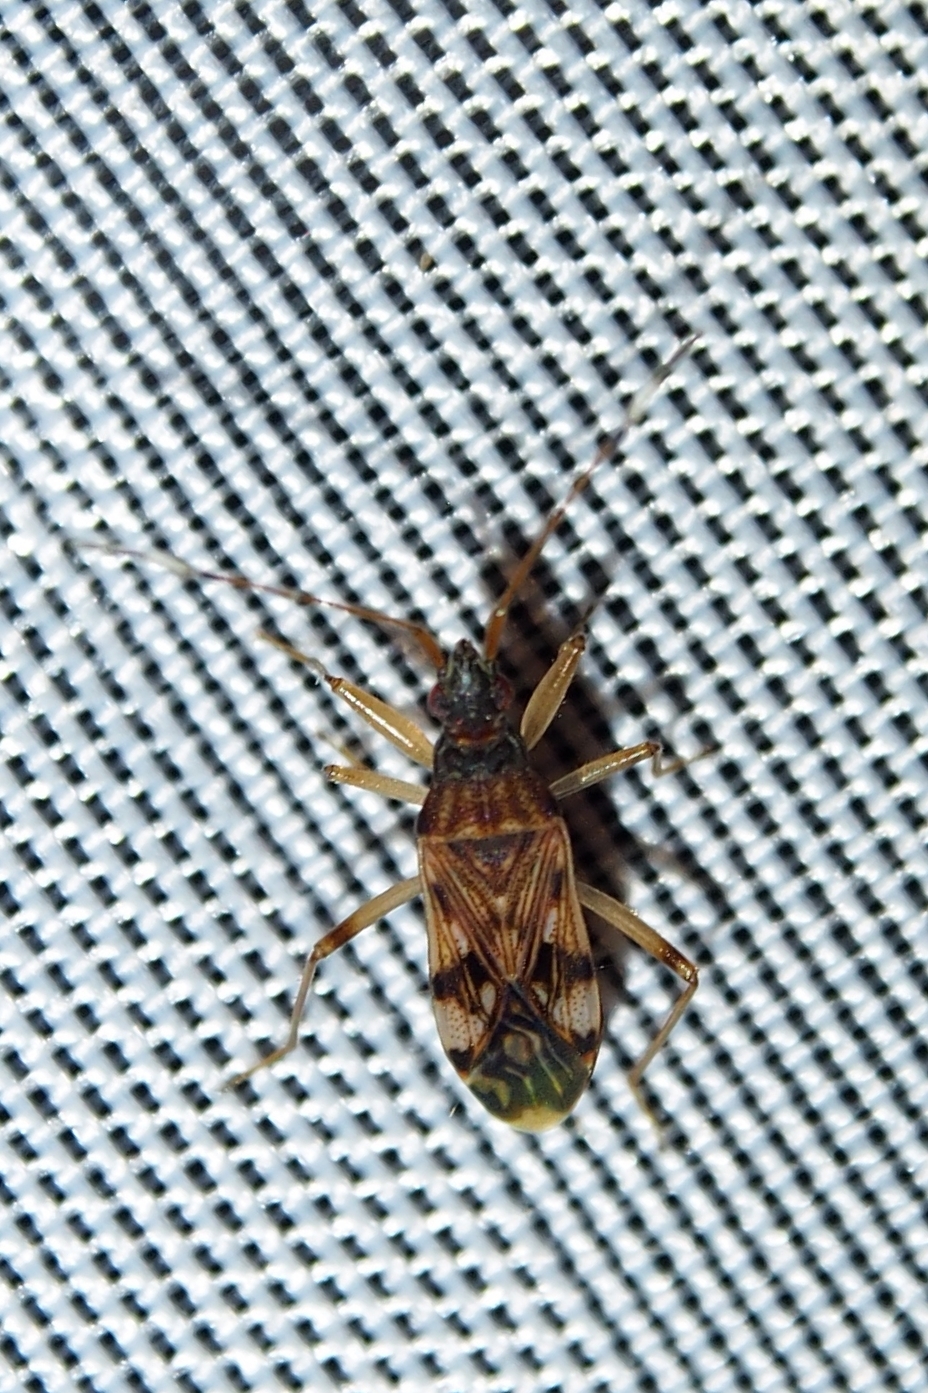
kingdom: Animalia
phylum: Arthropoda
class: Insecta
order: Hemiptera
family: Rhyparochromidae
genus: Ozophora
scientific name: Ozophora picturata
